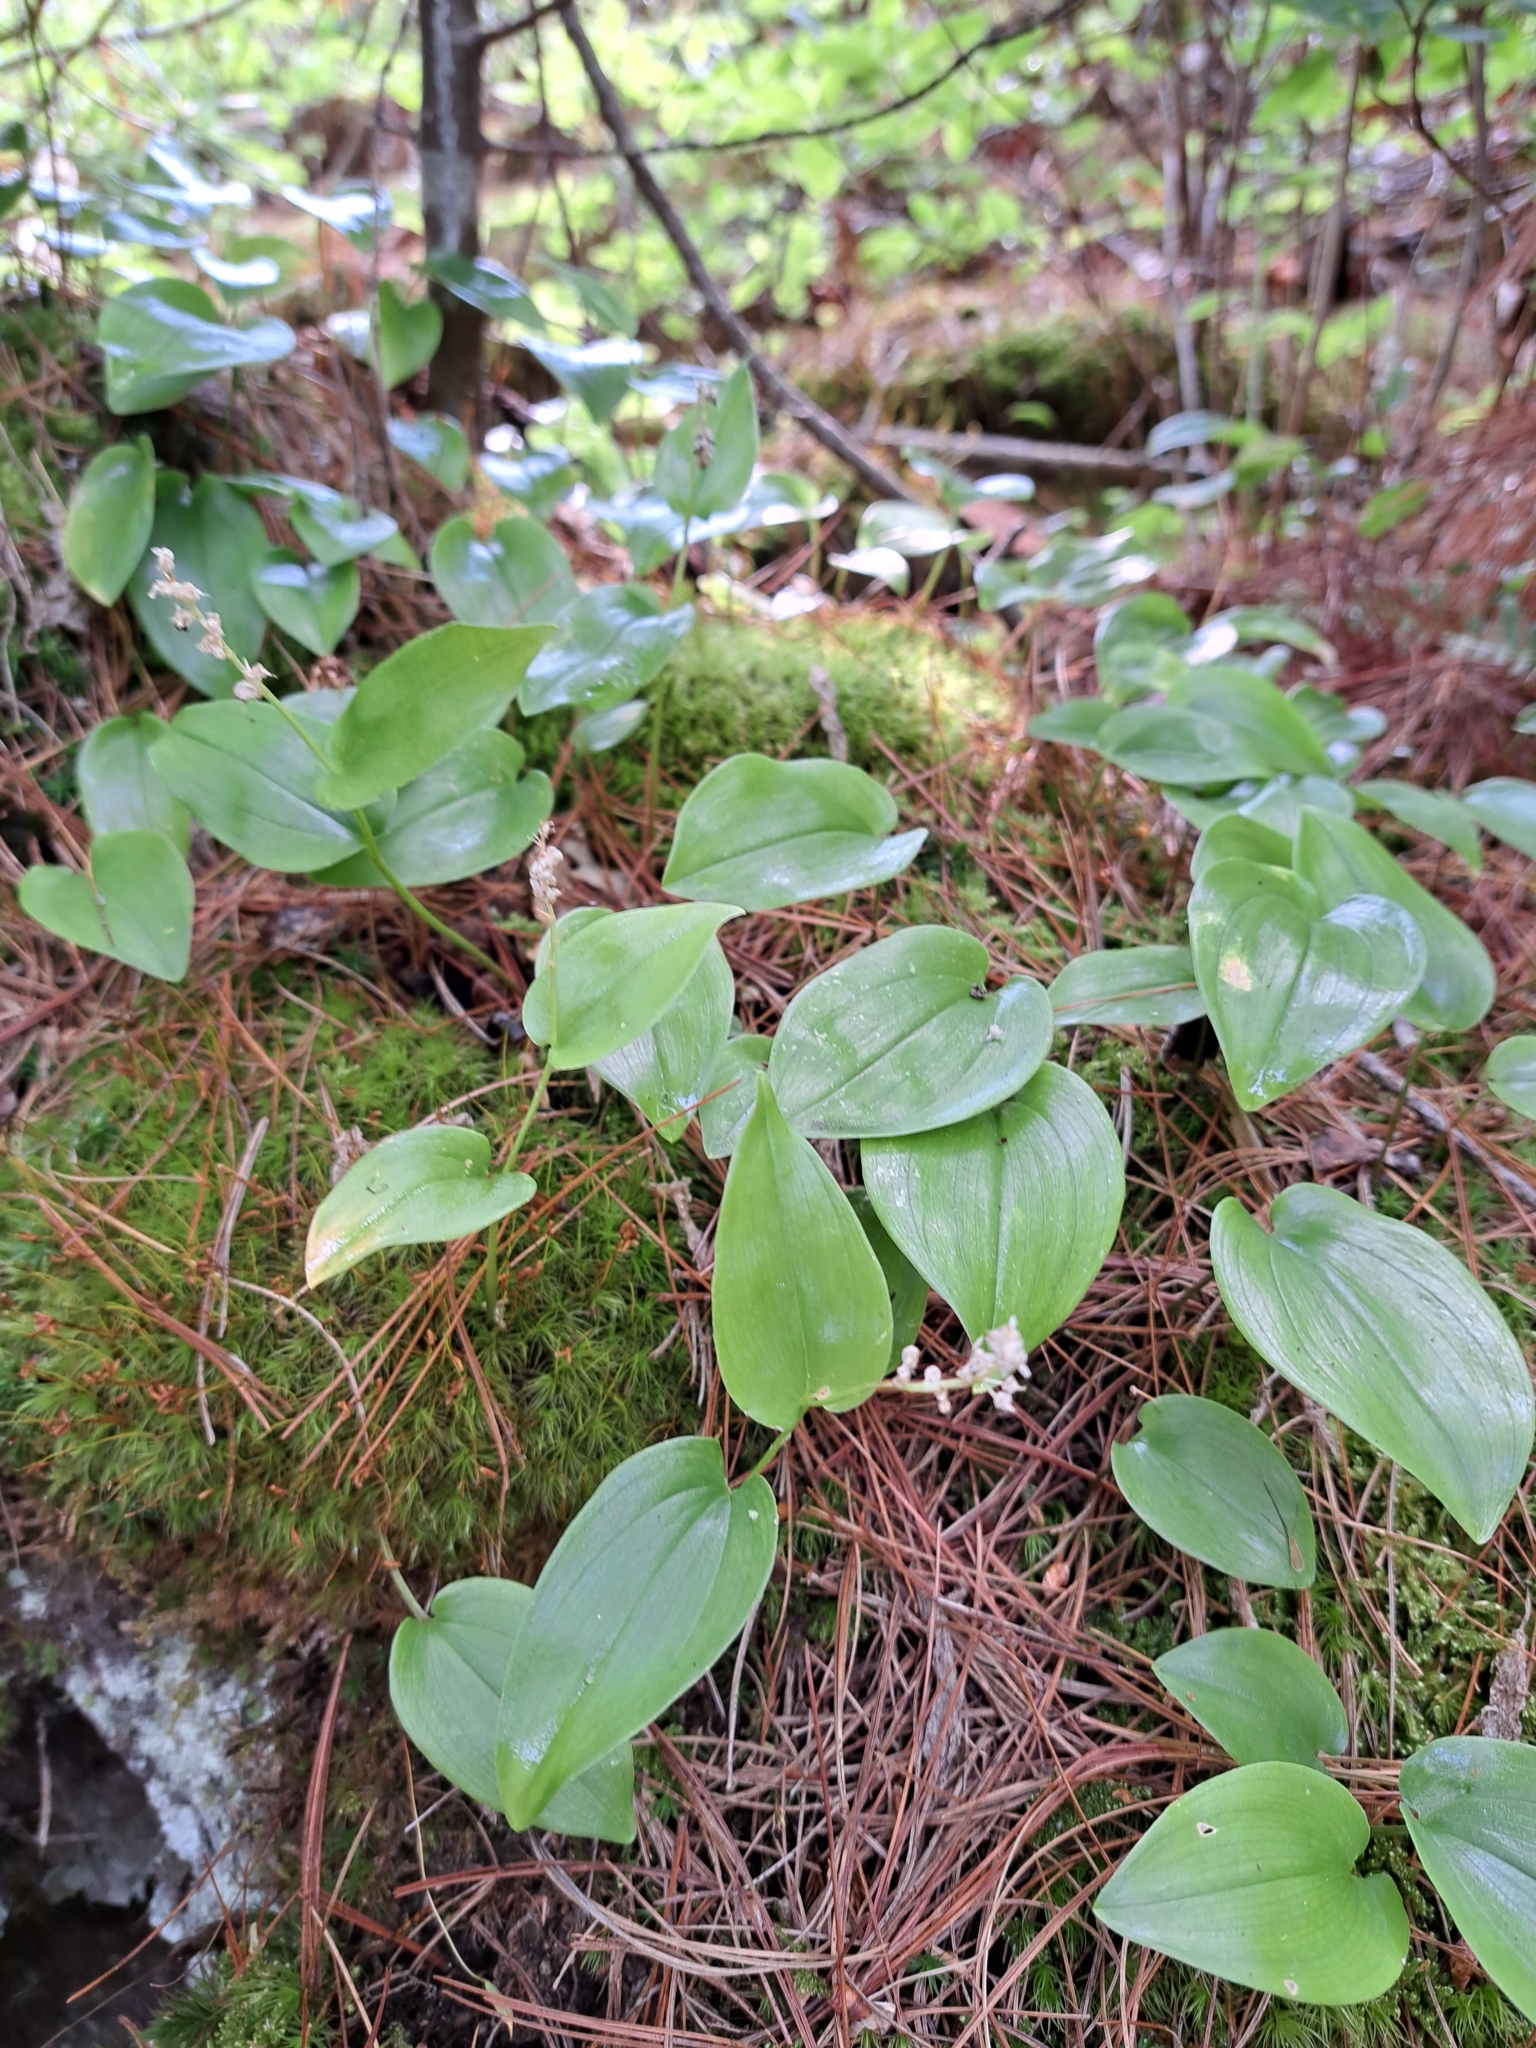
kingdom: Plantae
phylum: Tracheophyta
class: Liliopsida
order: Asparagales
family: Asparagaceae
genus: Maianthemum
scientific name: Maianthemum canadense
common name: False lily-of-the-valley
